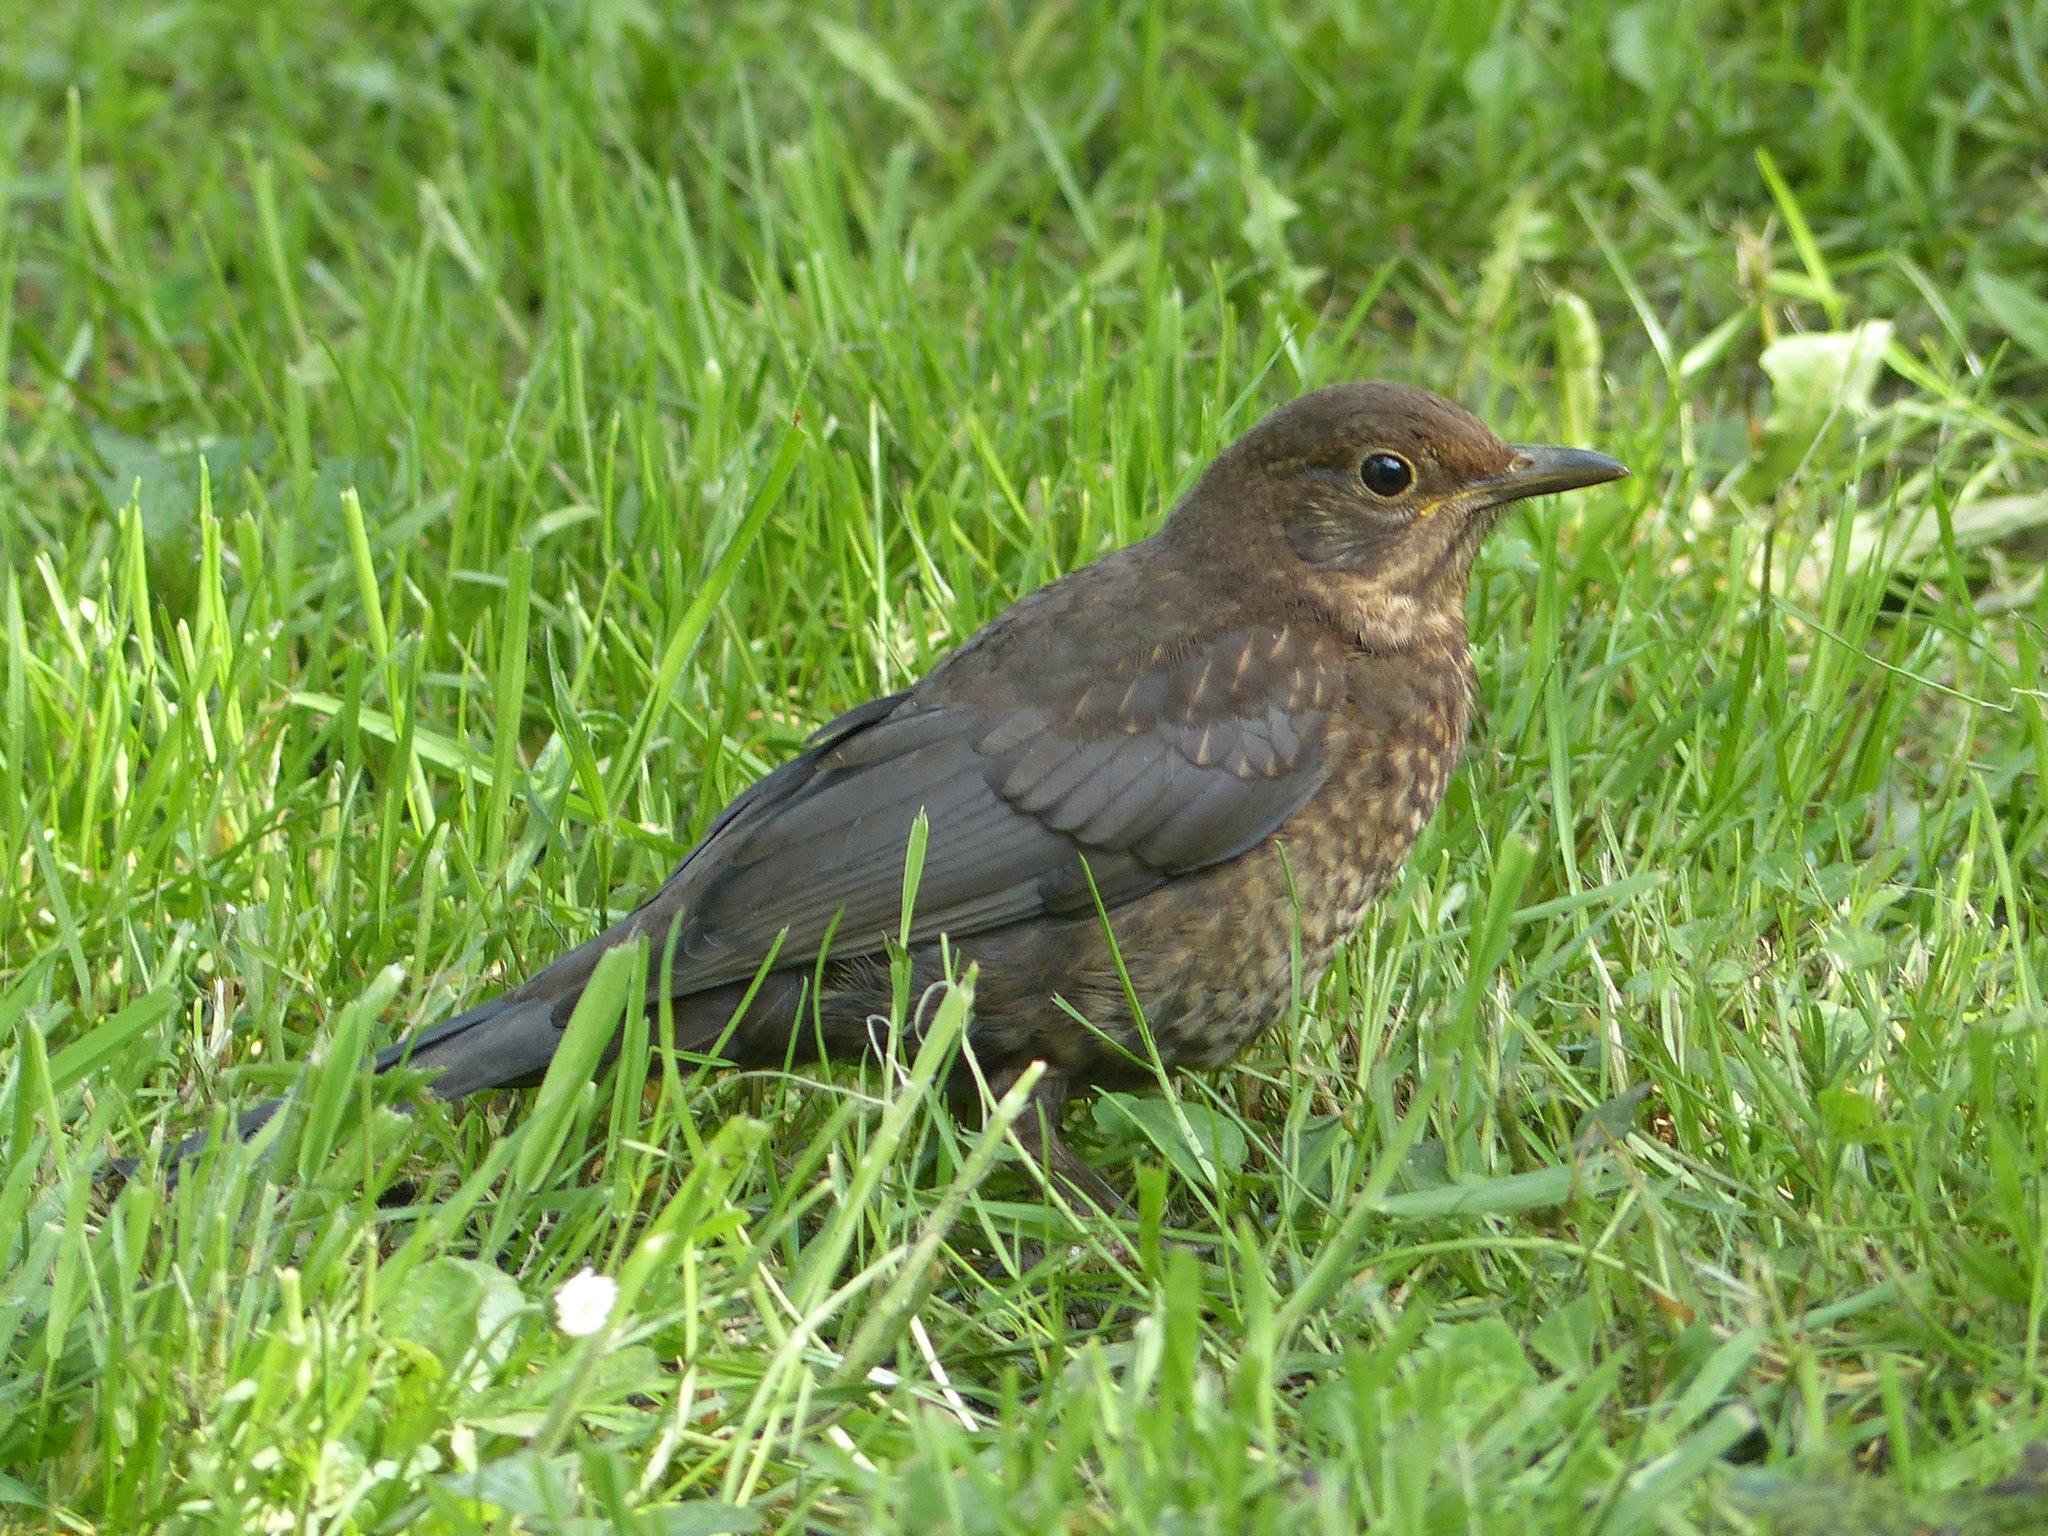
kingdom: Animalia
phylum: Chordata
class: Aves
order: Passeriformes
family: Turdidae
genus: Turdus
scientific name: Turdus merula
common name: Common blackbird
